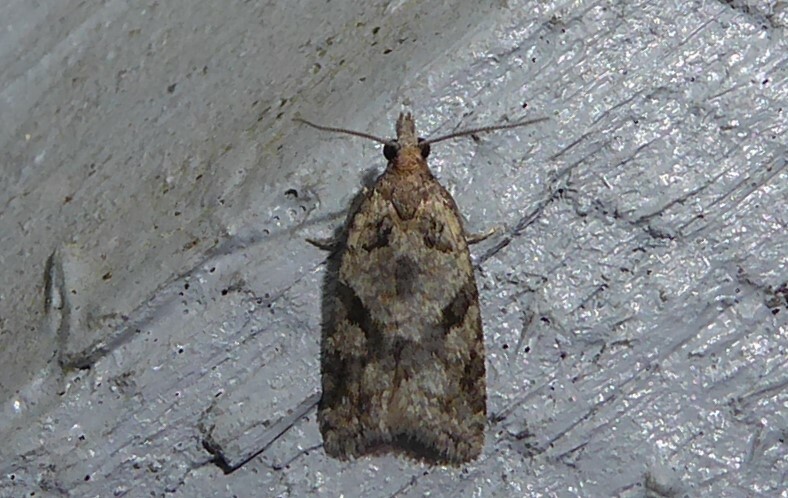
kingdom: Animalia
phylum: Arthropoda
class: Insecta
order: Lepidoptera
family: Tortricidae
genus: Capua
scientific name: Capua semiferana
